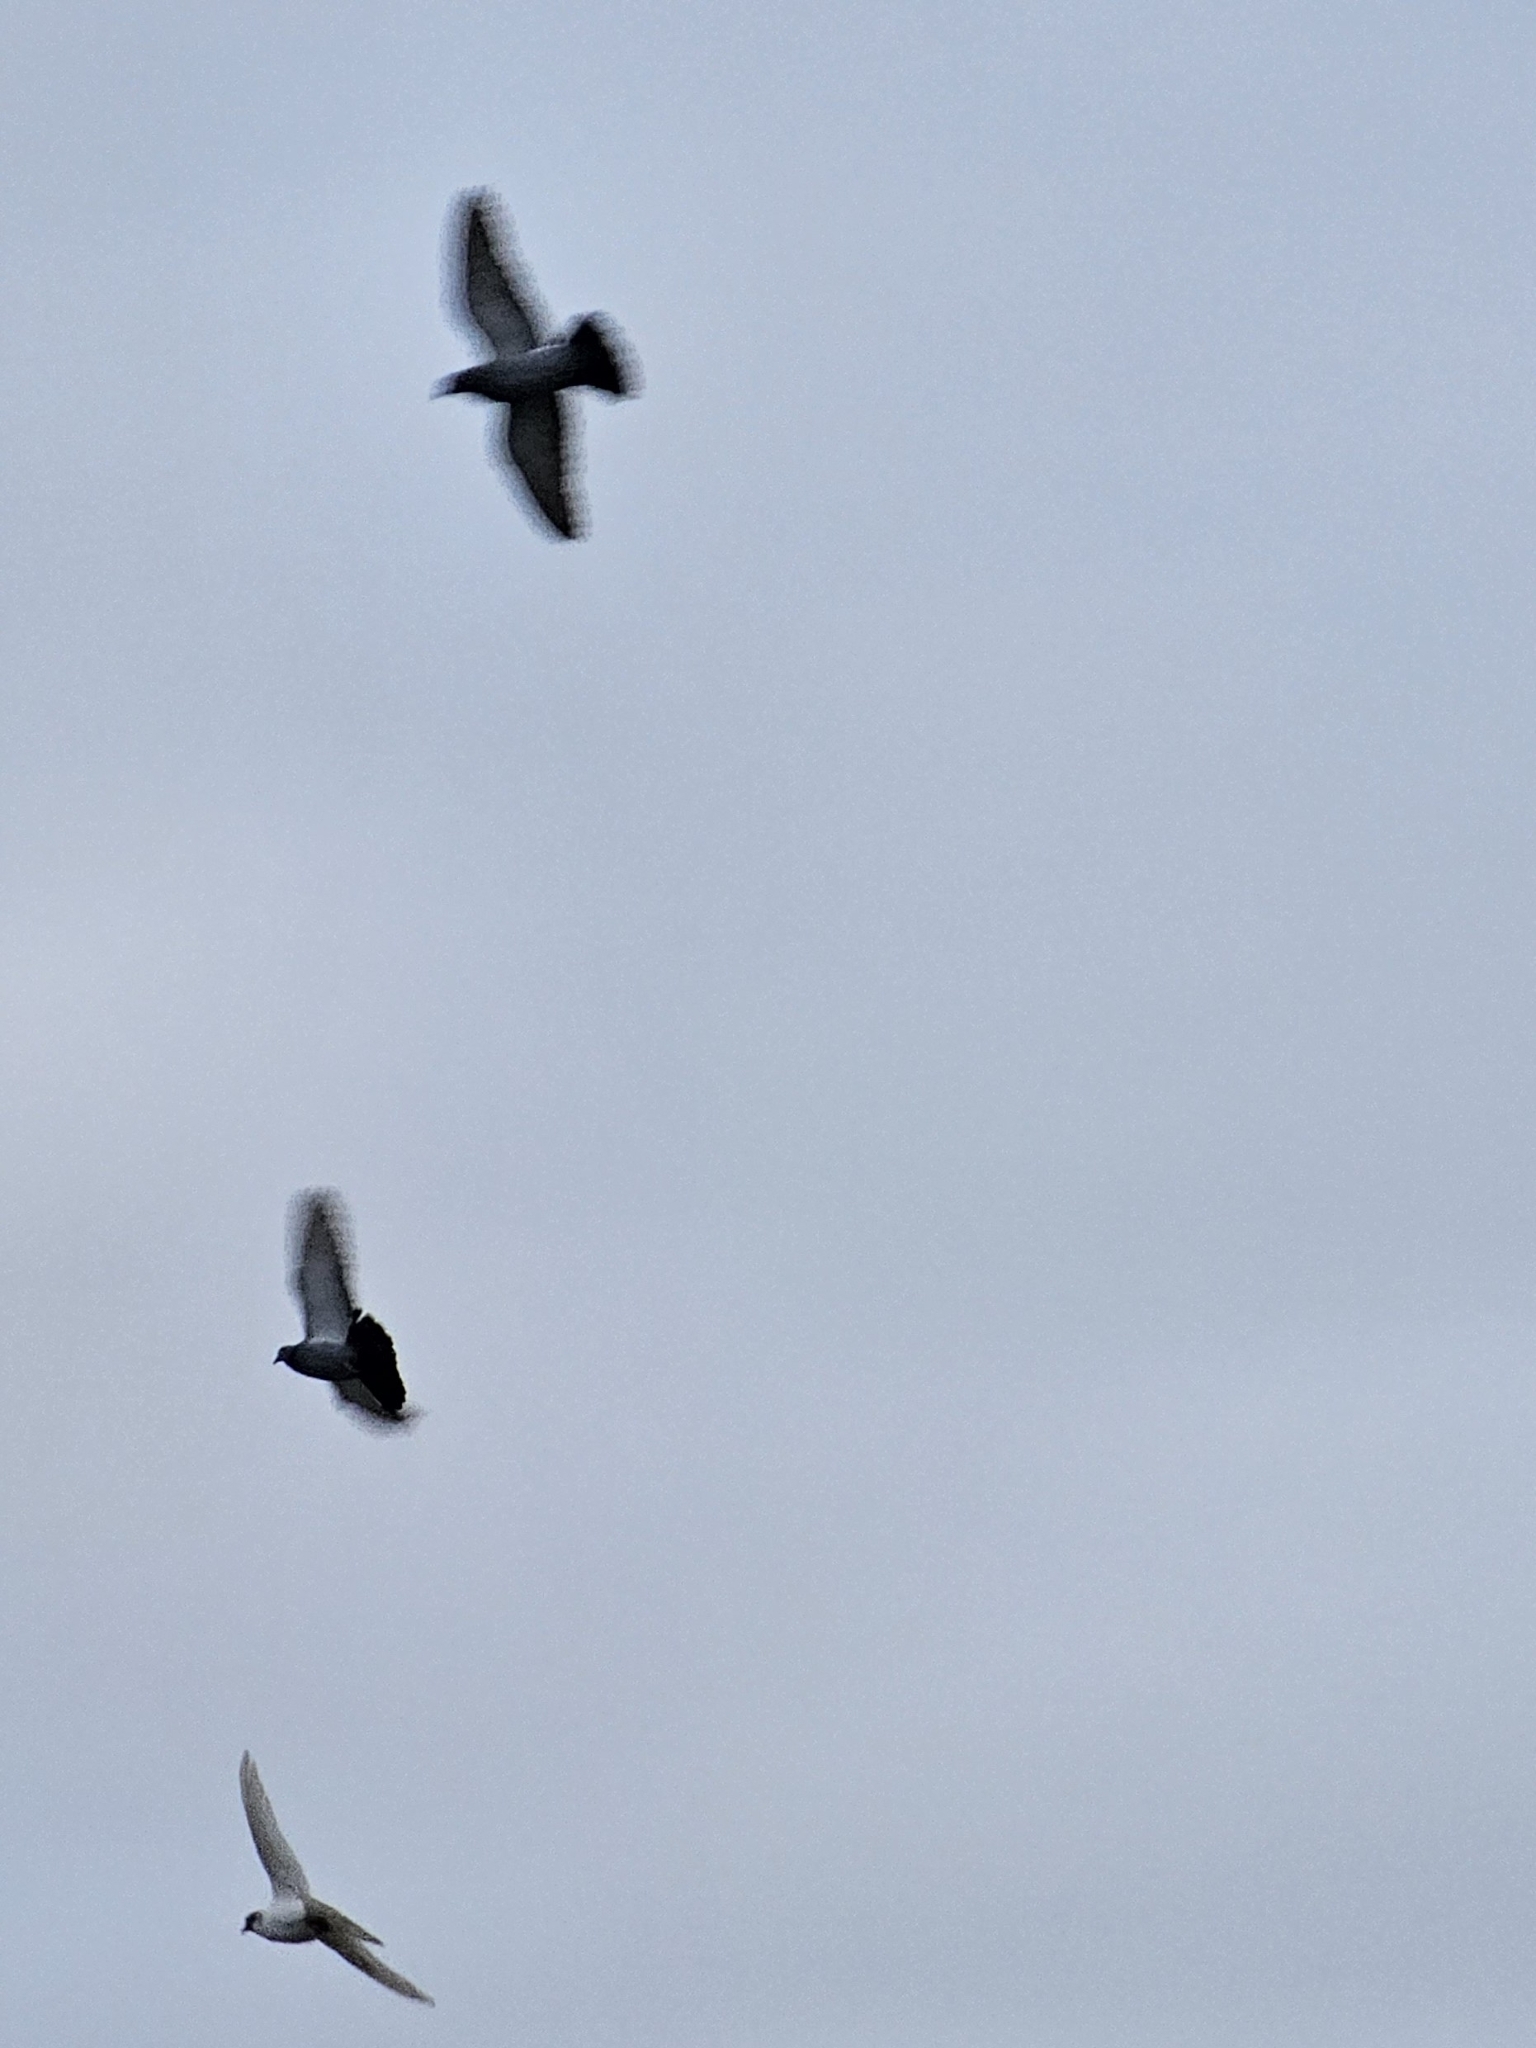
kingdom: Animalia
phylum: Chordata
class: Aves
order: Columbiformes
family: Columbidae
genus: Columba
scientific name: Columba livia
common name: Rock pigeon
